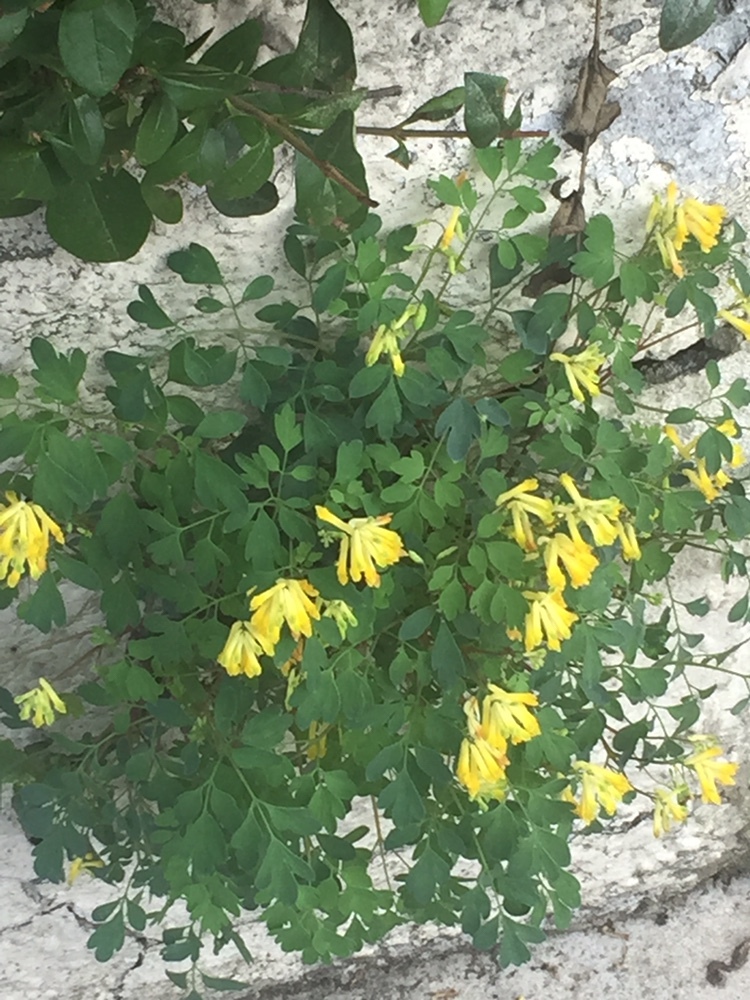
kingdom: Plantae
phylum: Tracheophyta
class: Magnoliopsida
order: Ranunculales
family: Papaveraceae
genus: Pseudofumaria
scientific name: Pseudofumaria lutea
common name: Yellow corydalis
